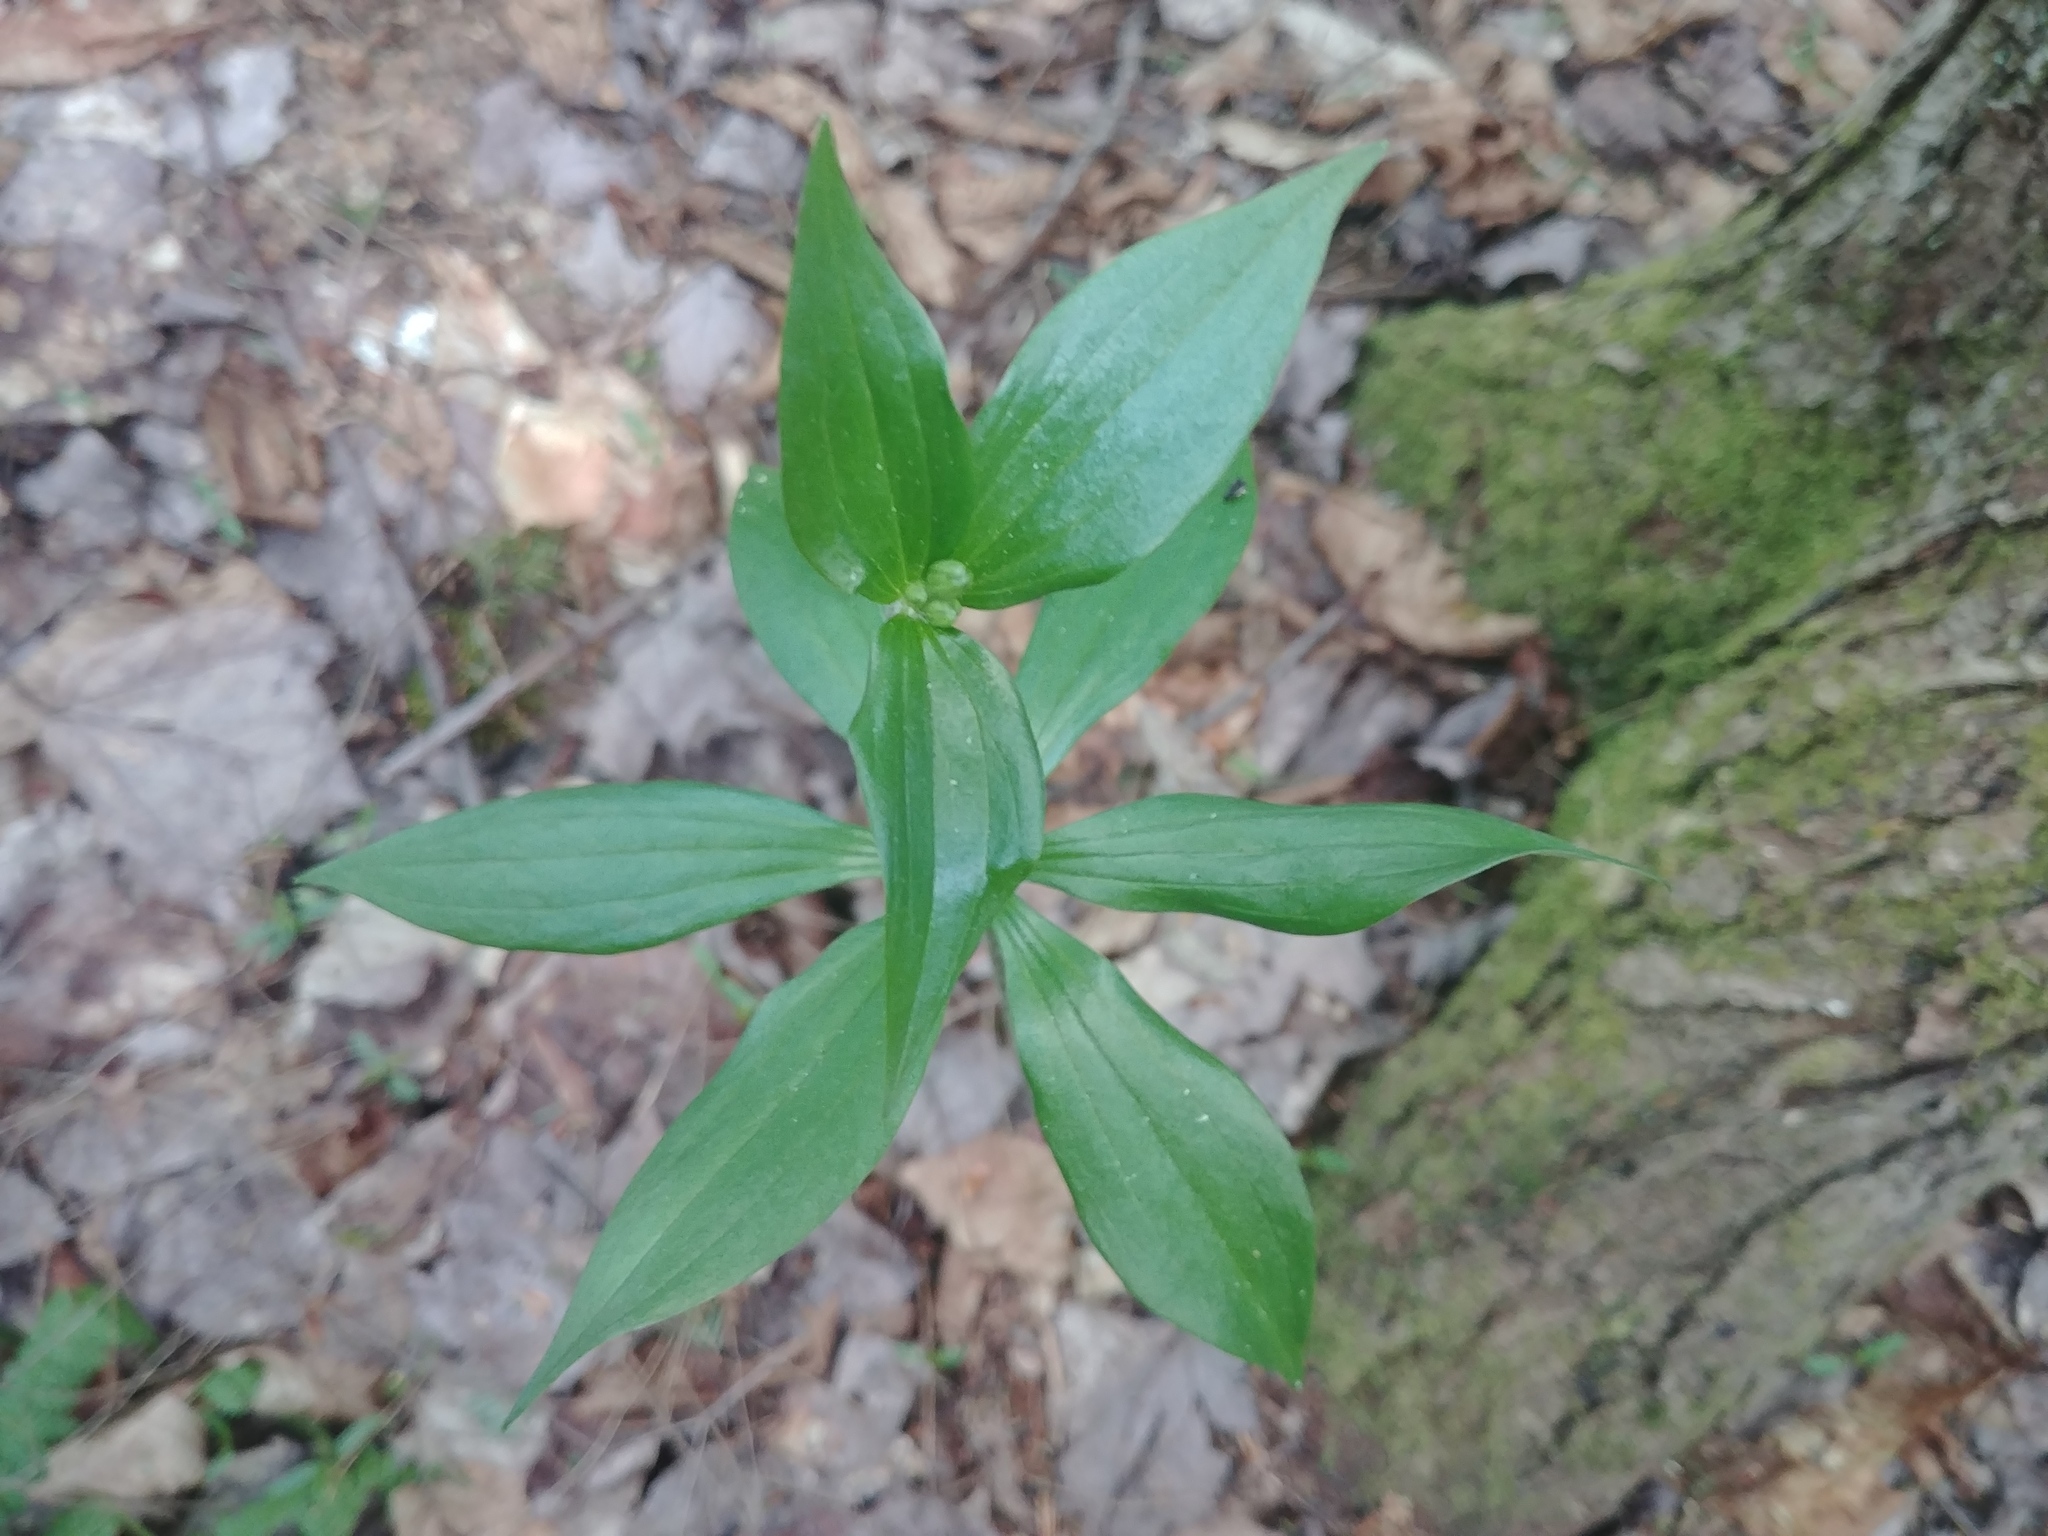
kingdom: Plantae
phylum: Tracheophyta
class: Liliopsida
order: Liliales
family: Liliaceae
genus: Medeola
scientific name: Medeola virginiana
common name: Indian cucumber-root
